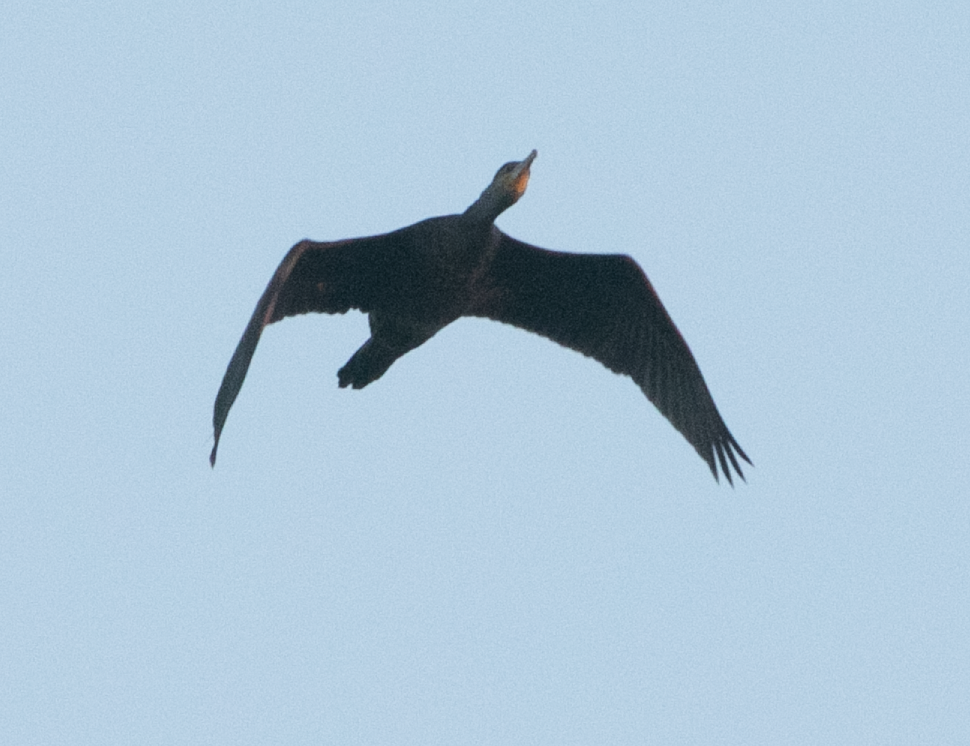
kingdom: Animalia
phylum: Chordata
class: Aves
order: Suliformes
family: Phalacrocoracidae
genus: Phalacrocorax
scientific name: Phalacrocorax carbo
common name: Great cormorant
